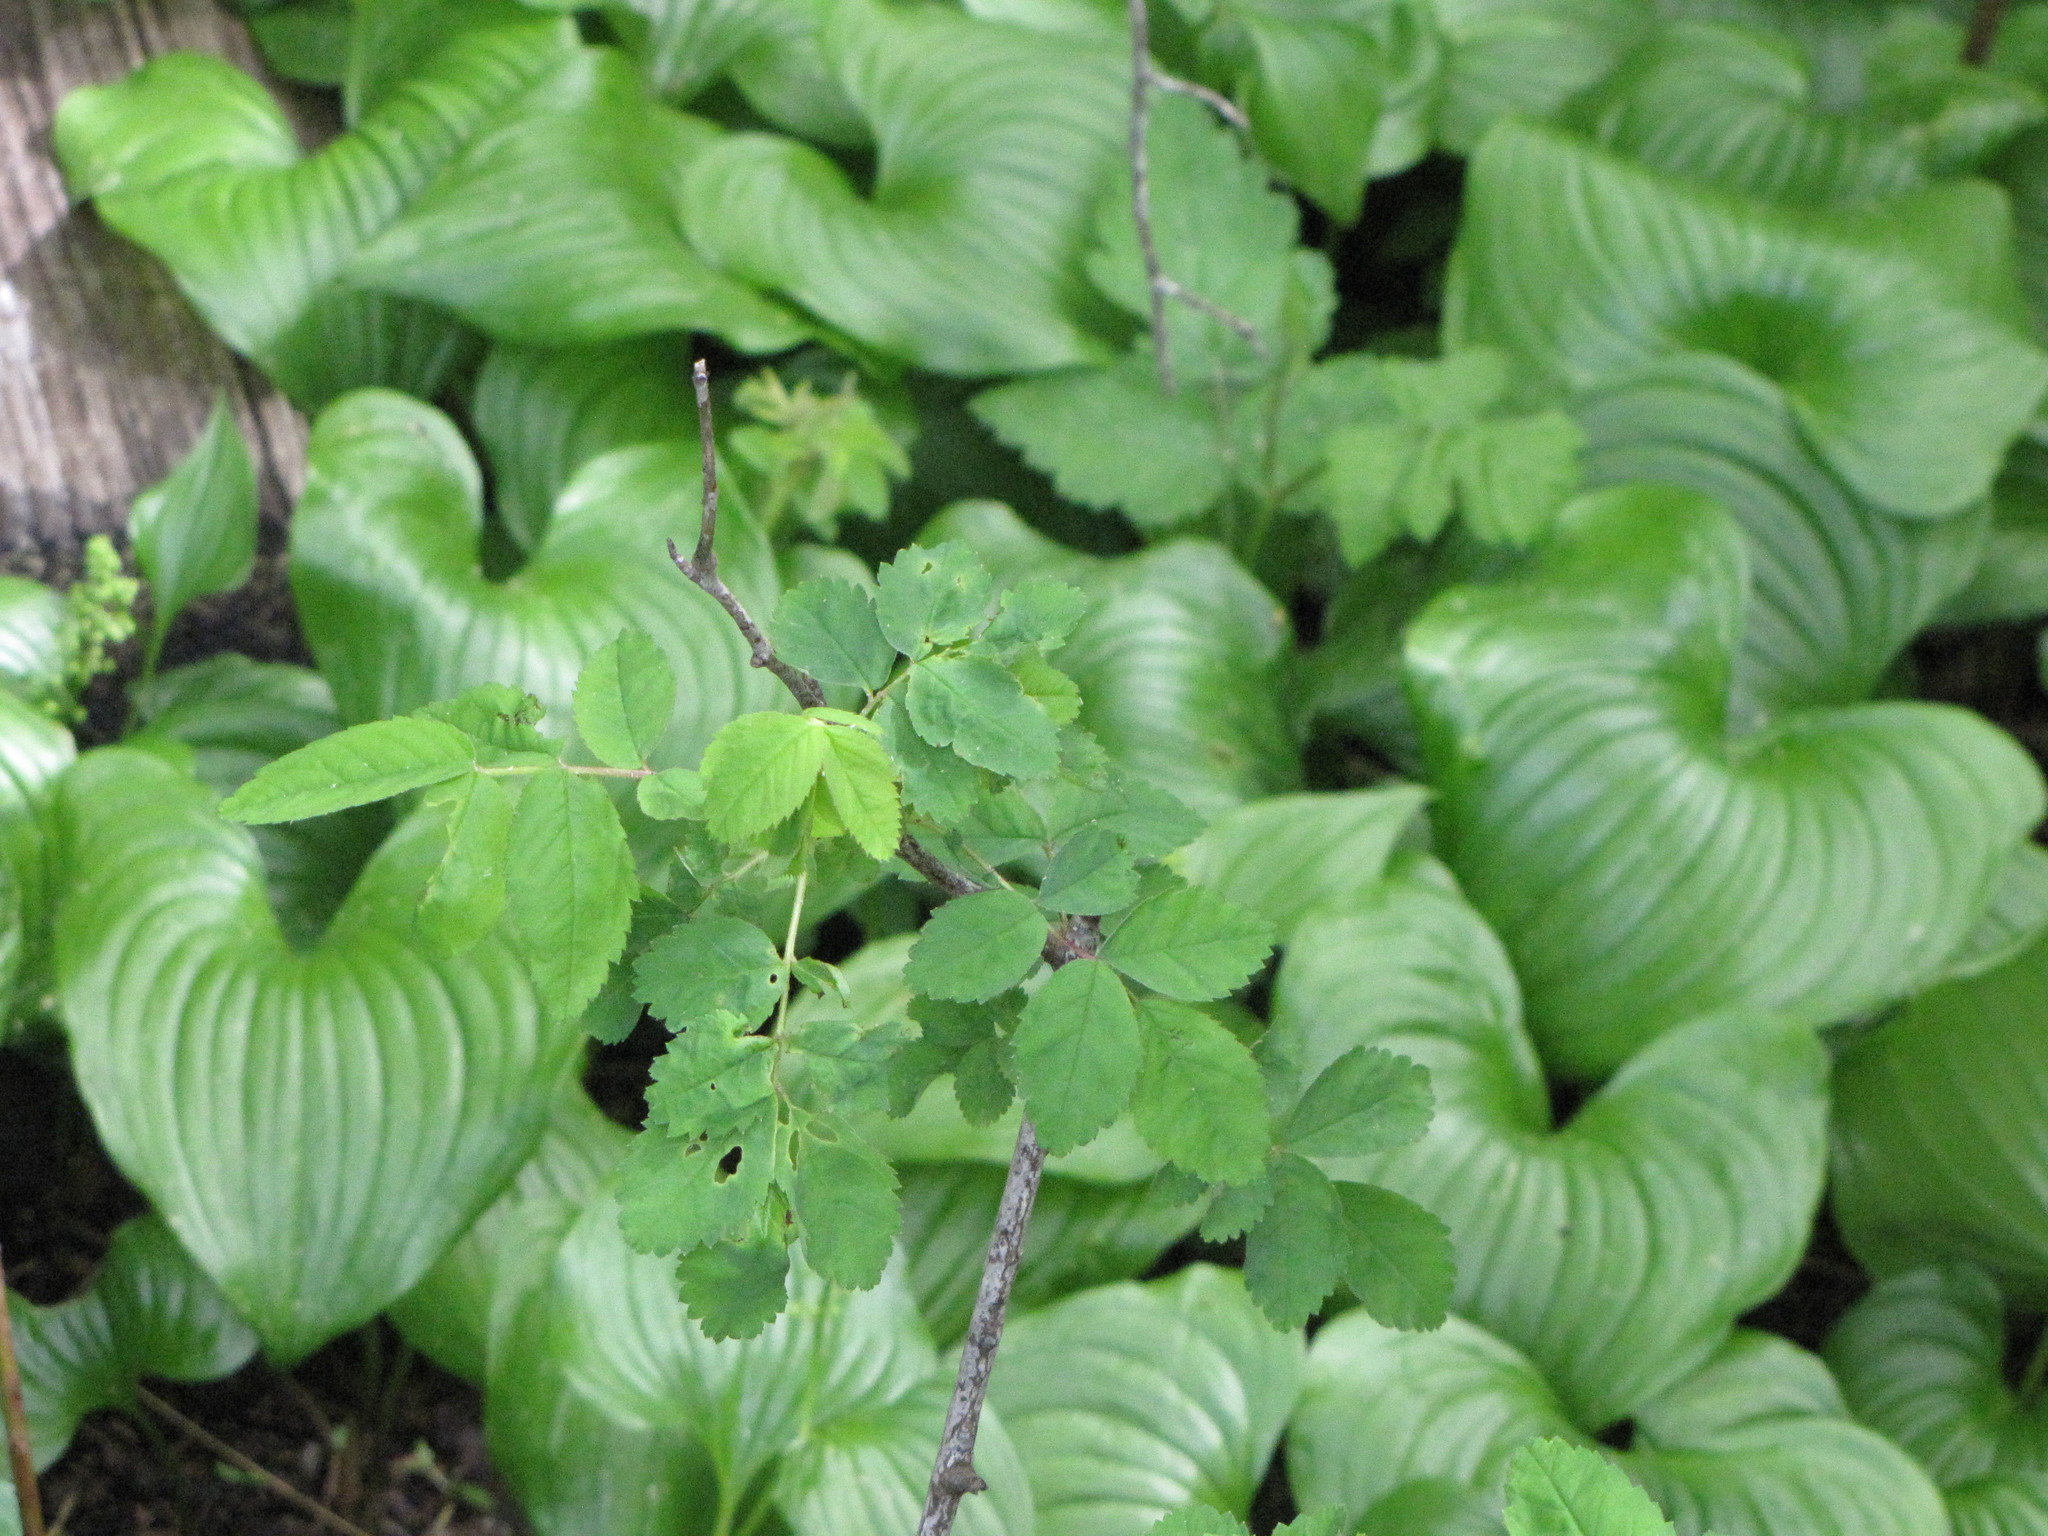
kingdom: Plantae
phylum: Tracheophyta
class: Liliopsida
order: Asparagales
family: Asparagaceae
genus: Maianthemum
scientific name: Maianthemum dilatatum
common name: False lily-of-the-valley
